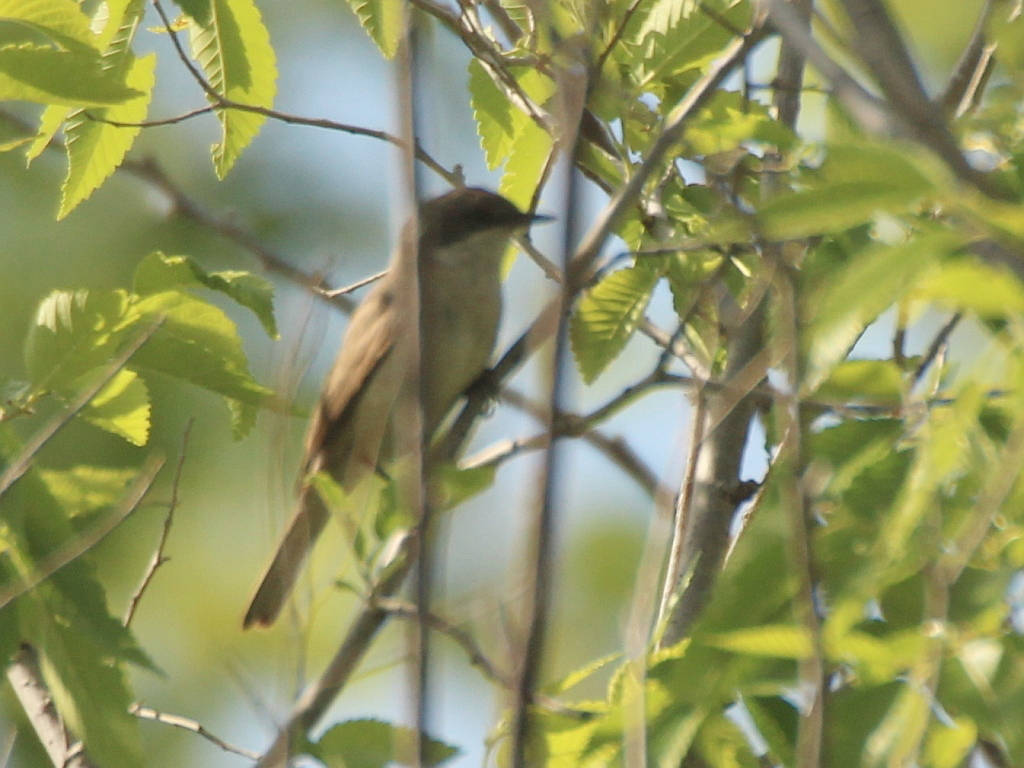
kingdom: Animalia
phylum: Chordata
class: Aves
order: Passeriformes
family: Sylviidae
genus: Sylvia
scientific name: Sylvia curruca
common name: Lesser whitethroat
